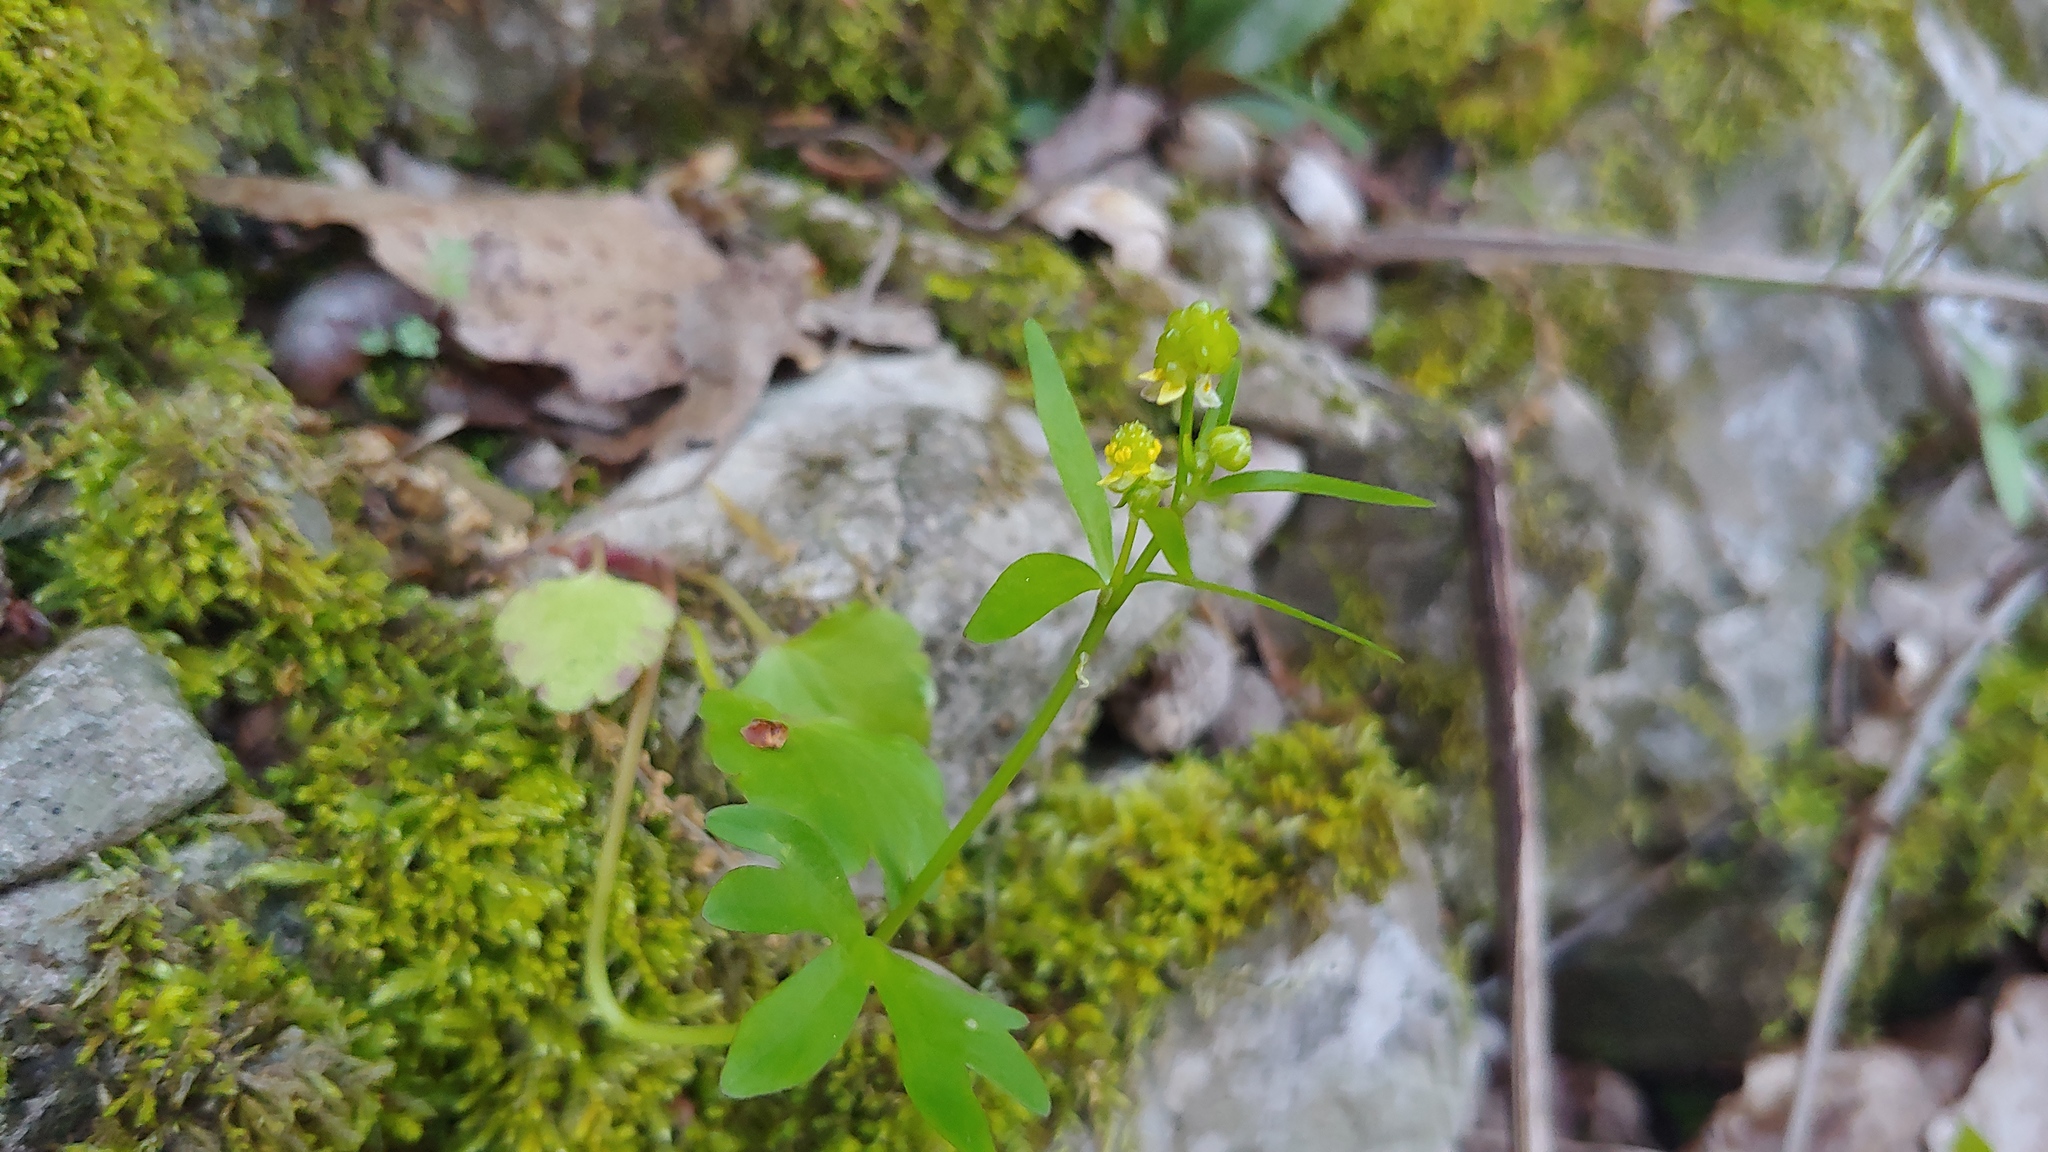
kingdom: Plantae
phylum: Tracheophyta
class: Magnoliopsida
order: Ranunculales
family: Ranunculaceae
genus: Ranunculus
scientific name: Ranunculus abortivus
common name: Early wood buttercup
